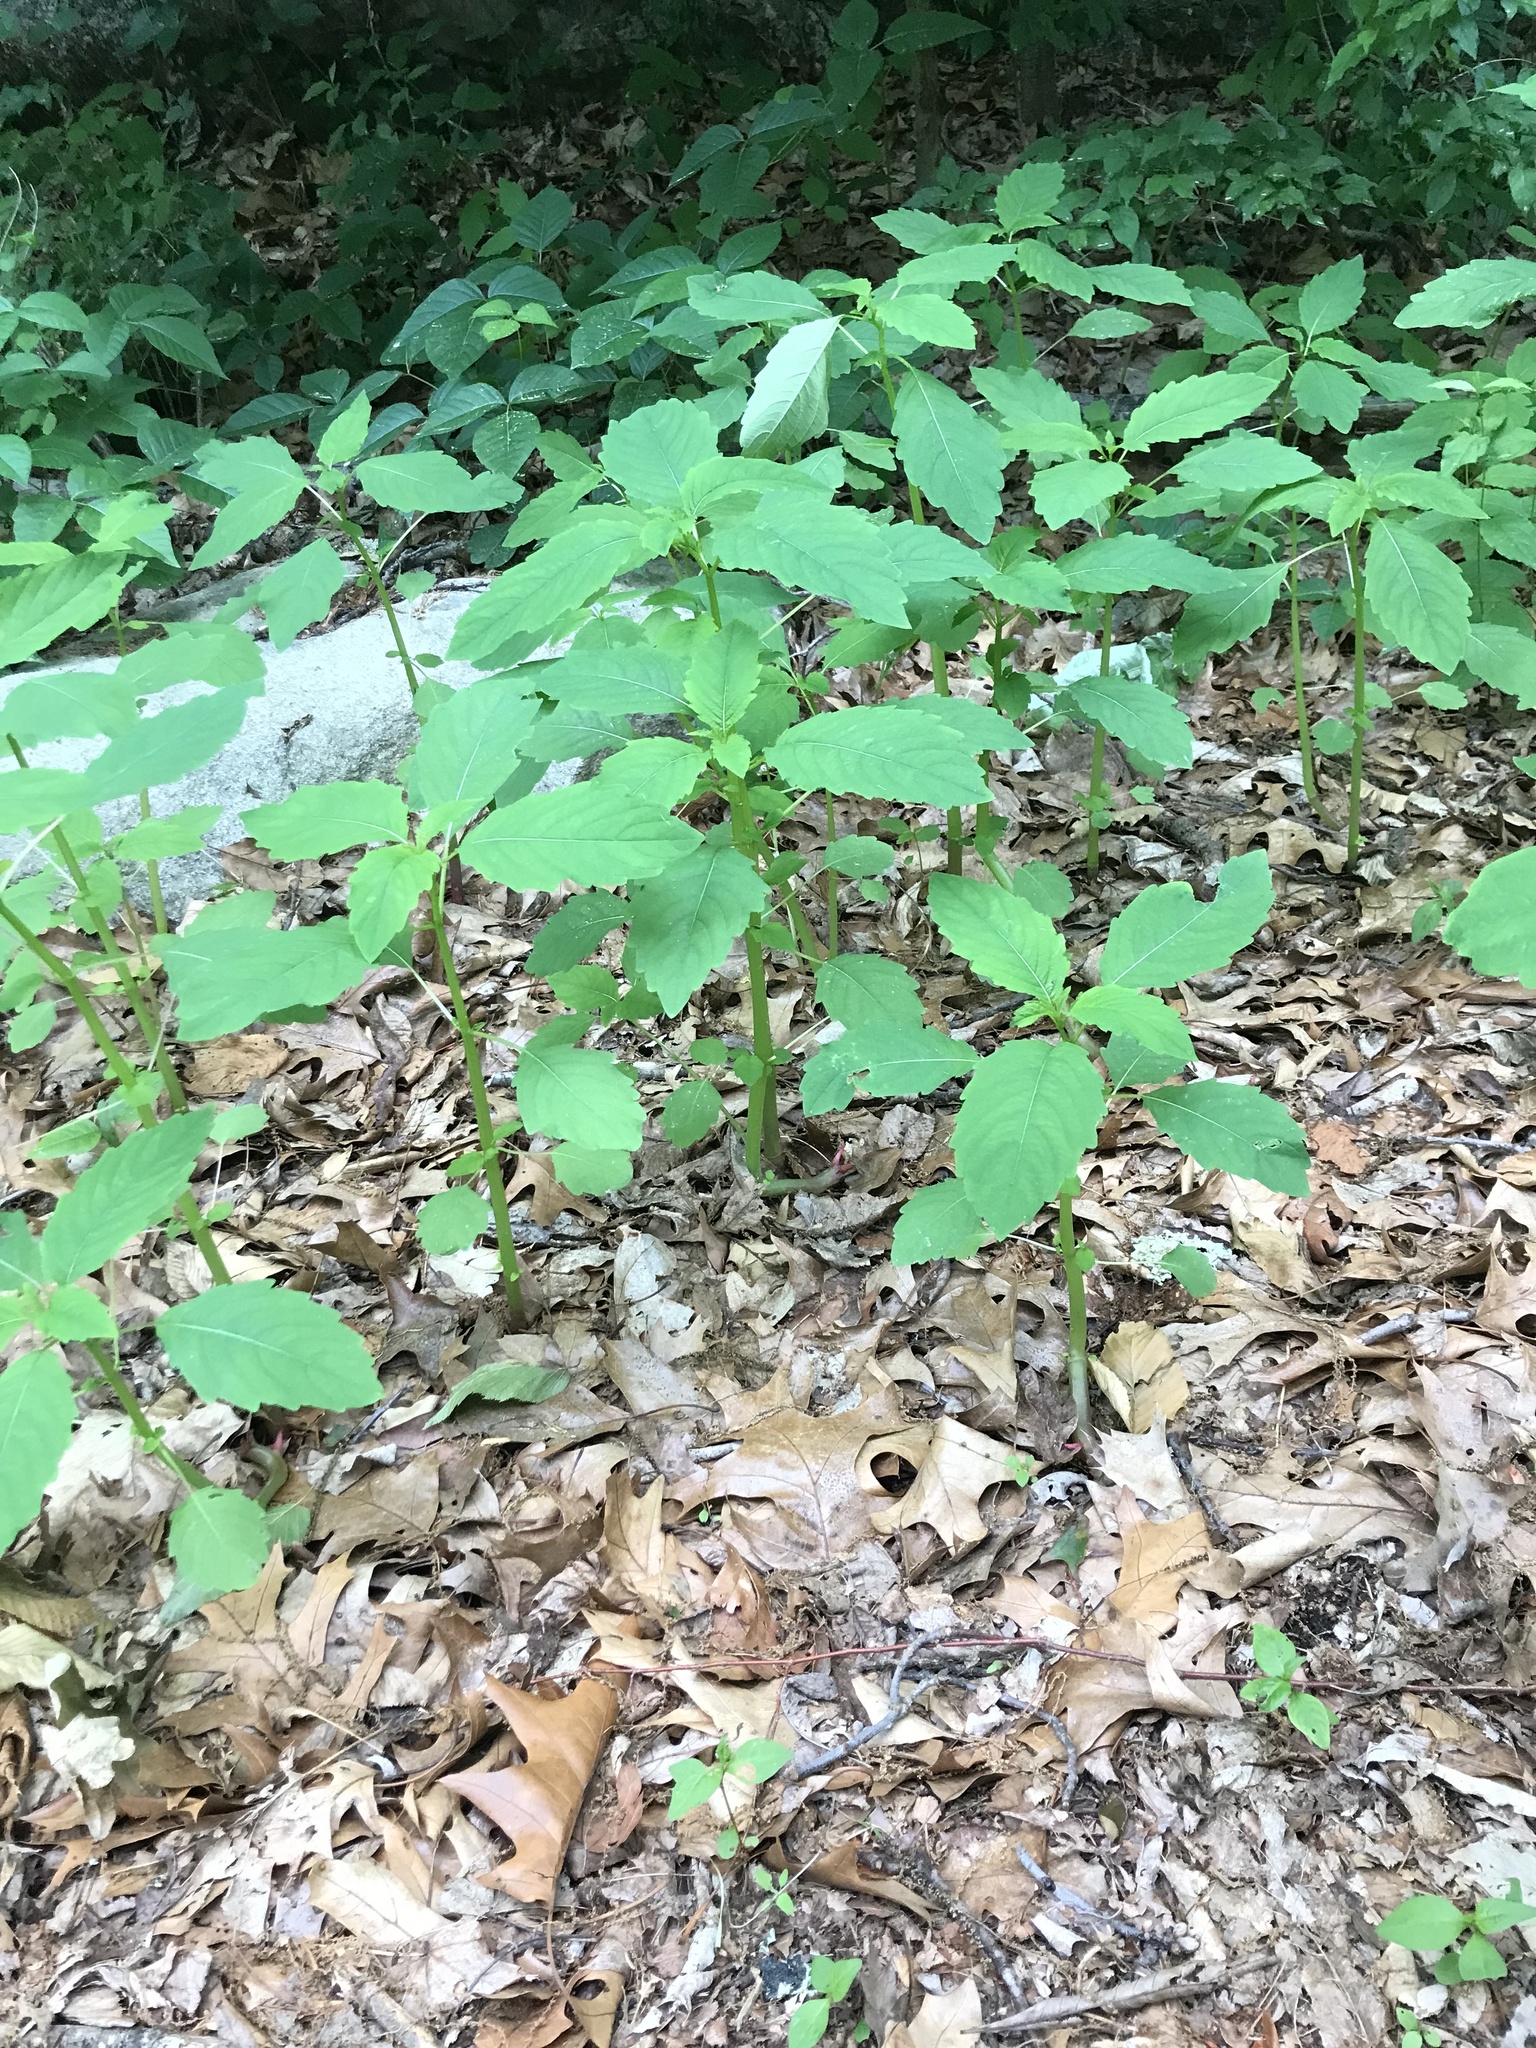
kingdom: Plantae
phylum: Tracheophyta
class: Magnoliopsida
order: Ericales
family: Balsaminaceae
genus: Impatiens
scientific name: Impatiens
